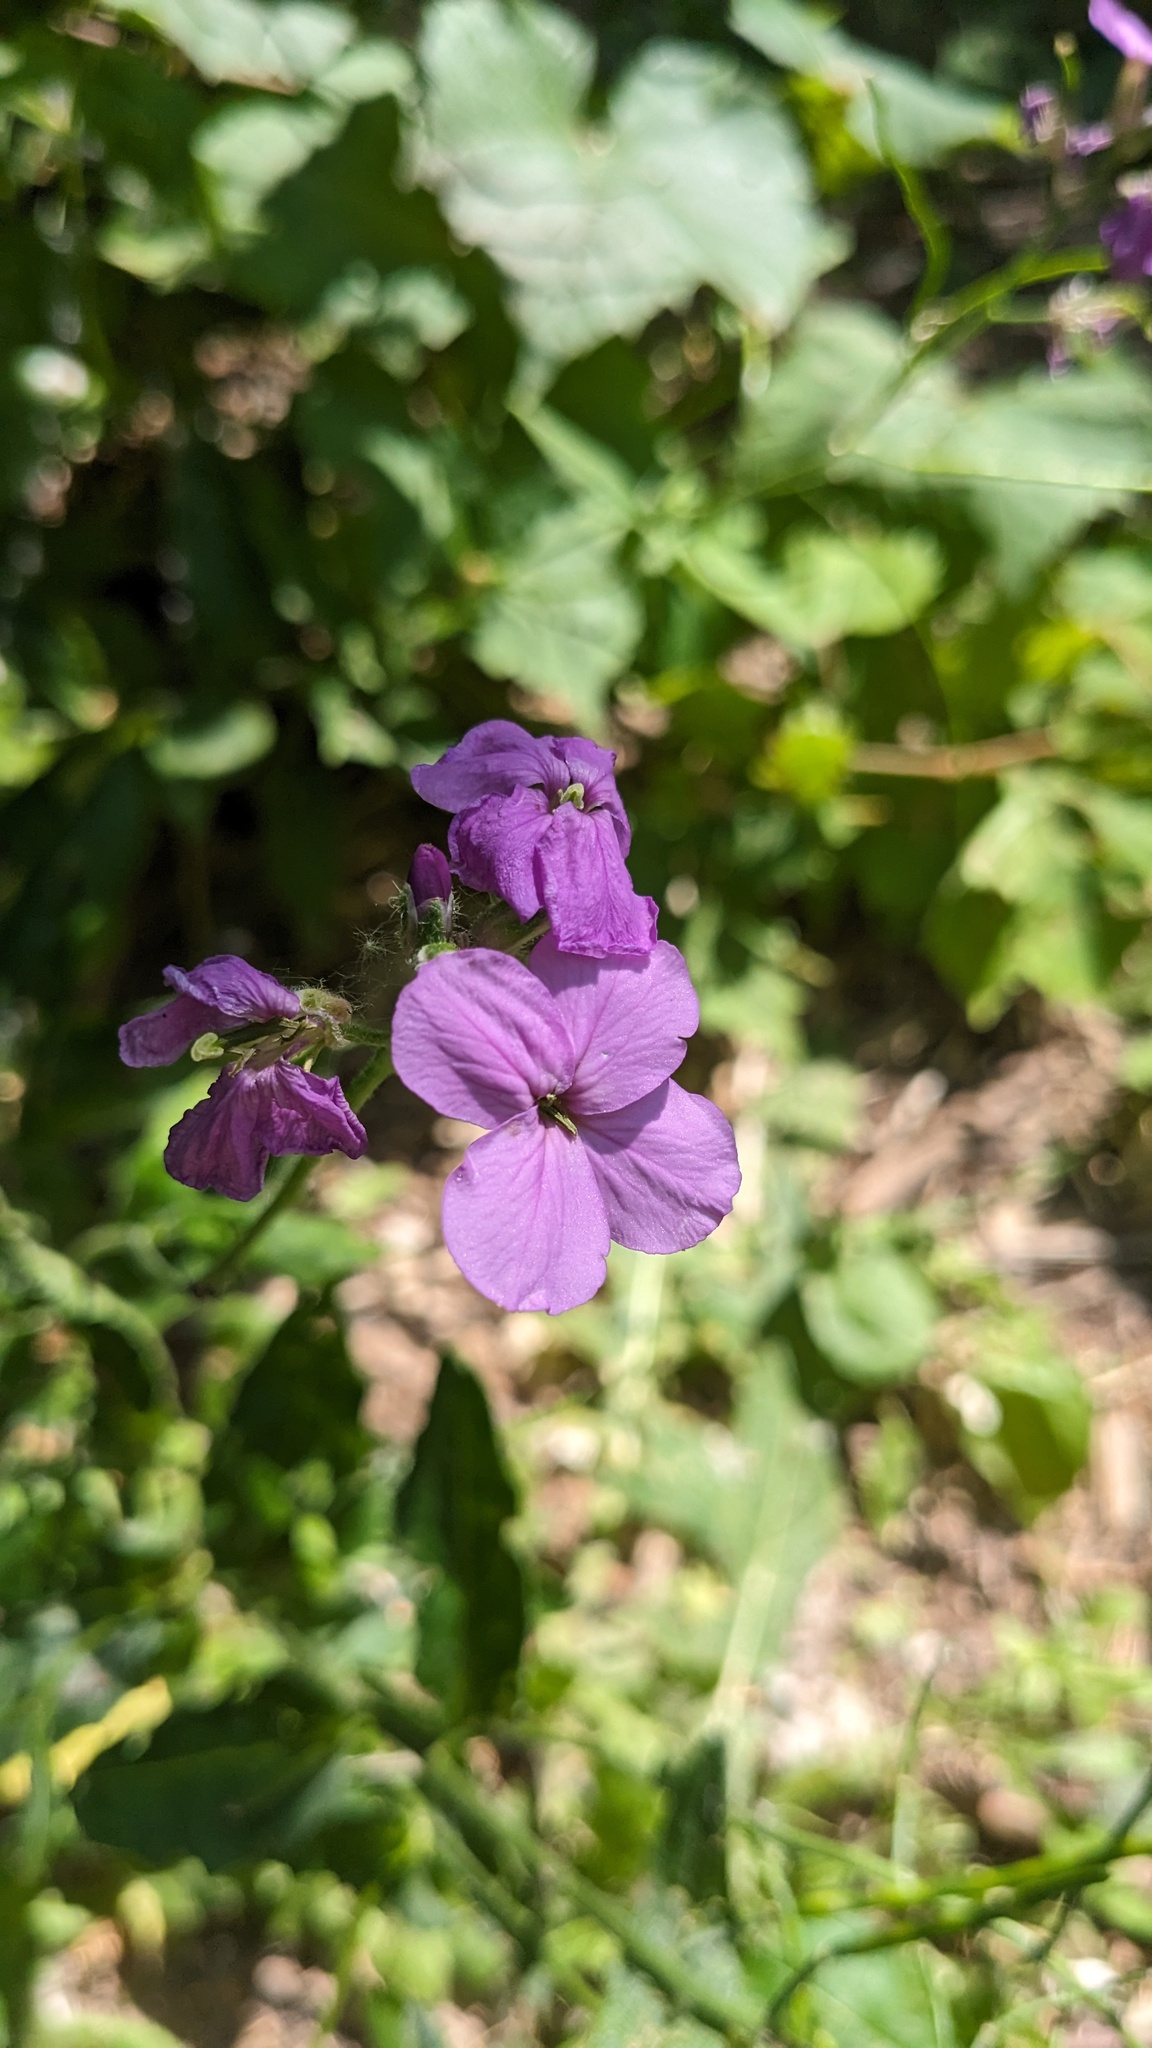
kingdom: Plantae
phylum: Tracheophyta
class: Magnoliopsida
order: Brassicales
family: Brassicaceae
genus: Hesperis
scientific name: Hesperis matronalis
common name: Dame's-violet
